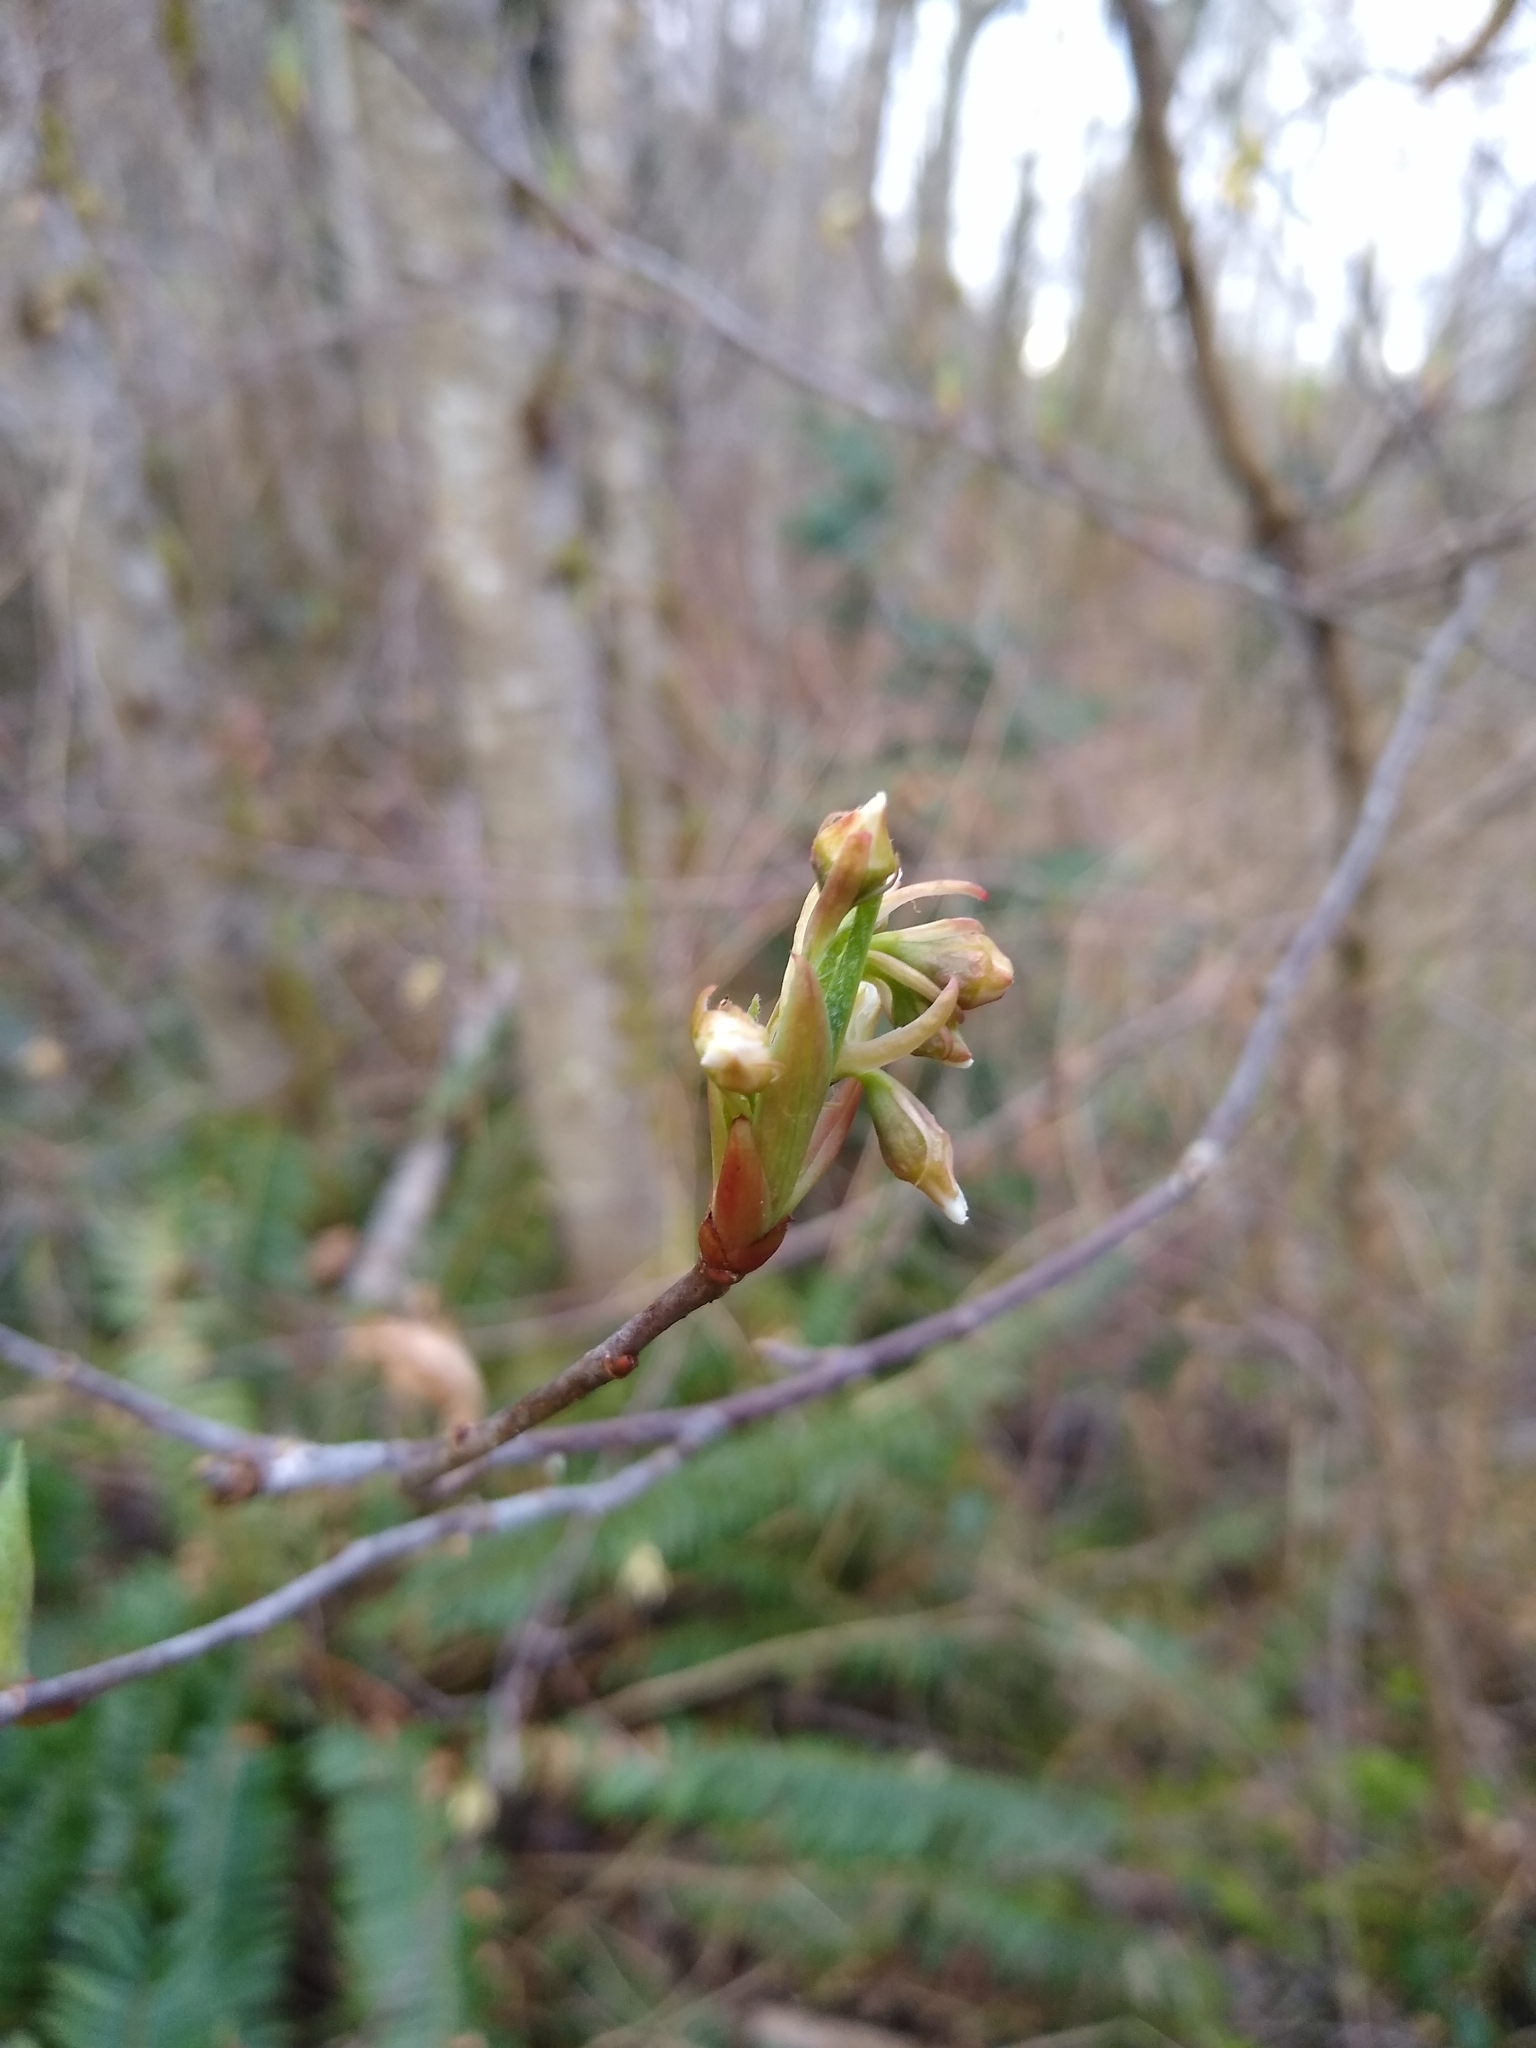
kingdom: Plantae
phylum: Tracheophyta
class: Magnoliopsida
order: Rosales
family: Rosaceae
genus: Oemleria
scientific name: Oemleria cerasiformis
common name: Osoberry
